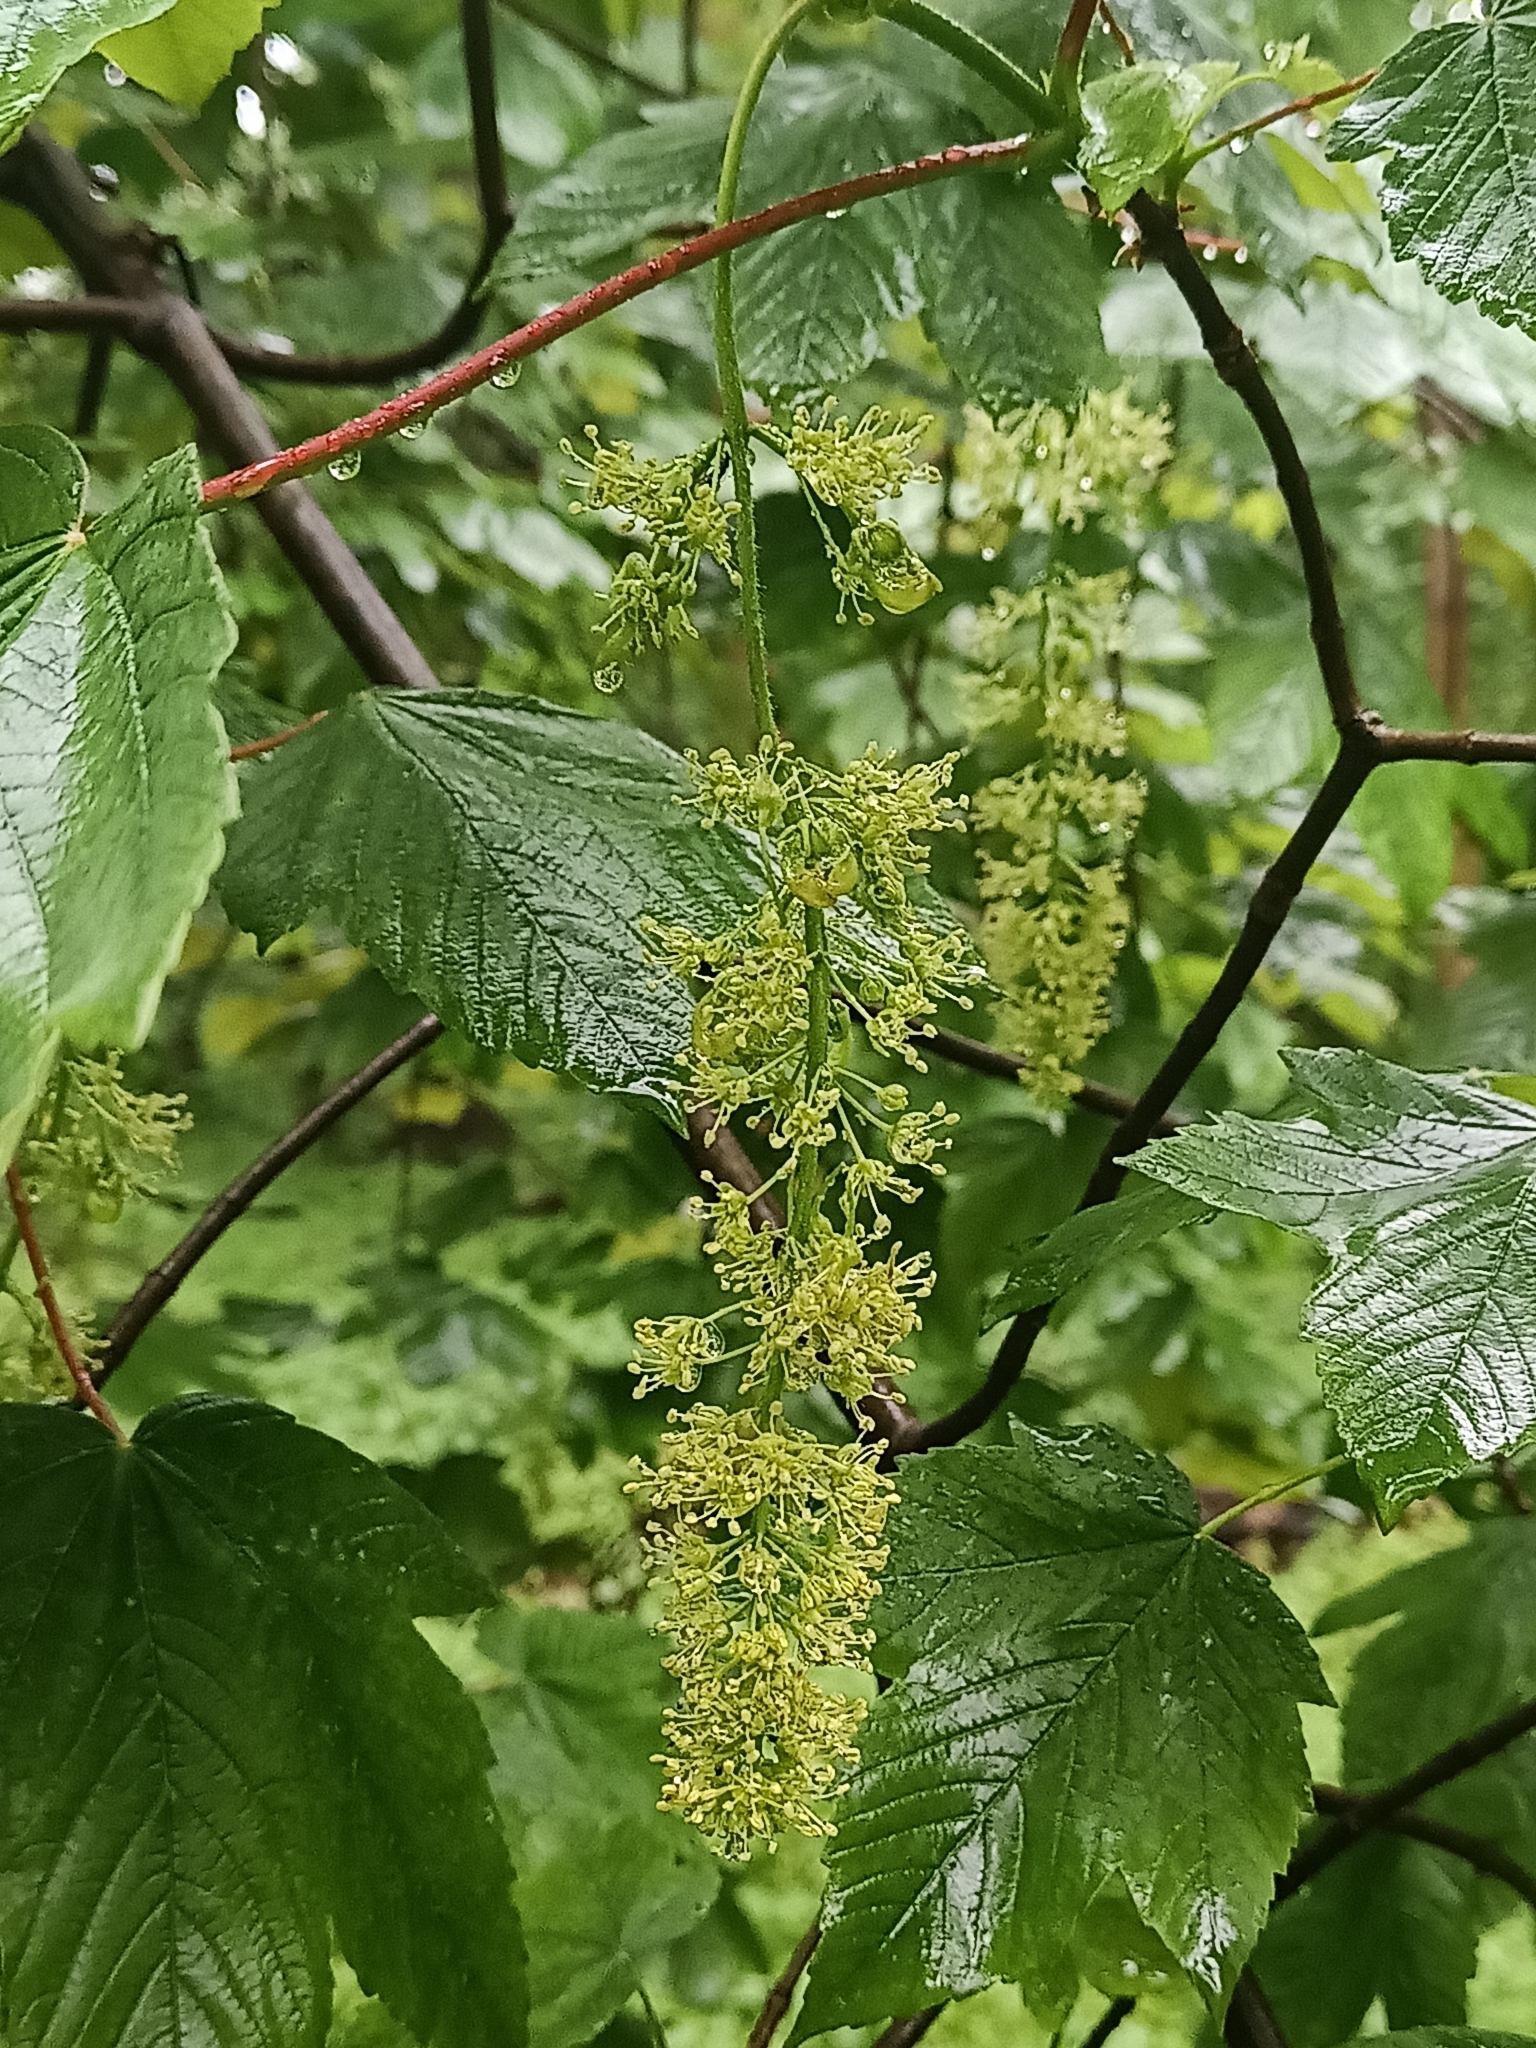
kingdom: Plantae
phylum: Tracheophyta
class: Magnoliopsida
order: Sapindales
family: Sapindaceae
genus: Acer
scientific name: Acer pseudoplatanus
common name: Sycamore
